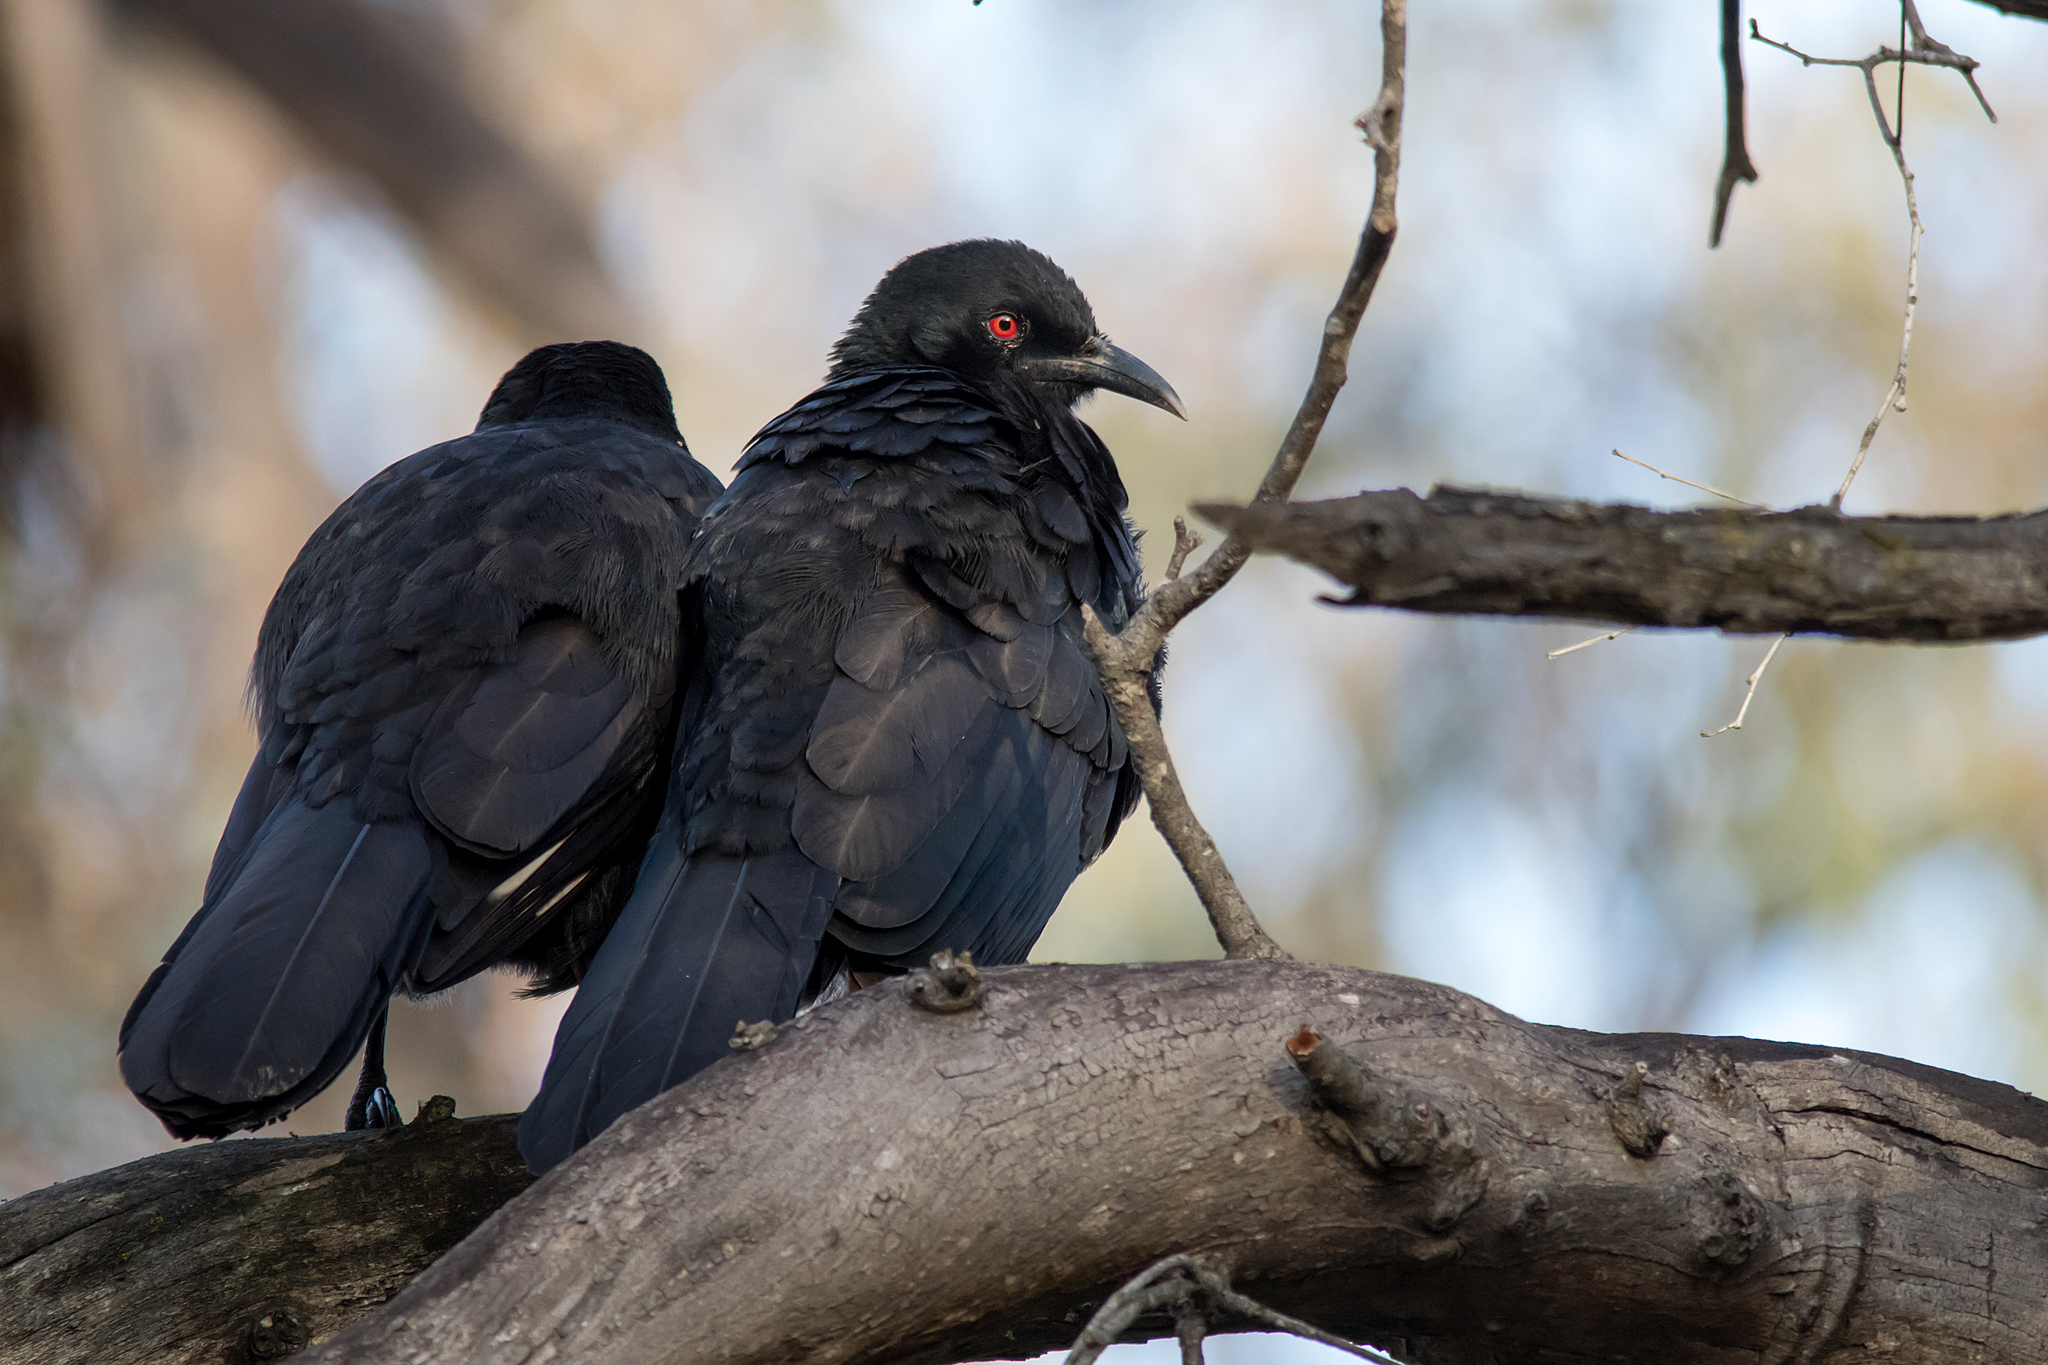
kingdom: Animalia
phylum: Chordata
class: Aves
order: Passeriformes
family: Corcoracidae
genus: Corcorax
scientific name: Corcorax melanoramphos
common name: White-winged chough
